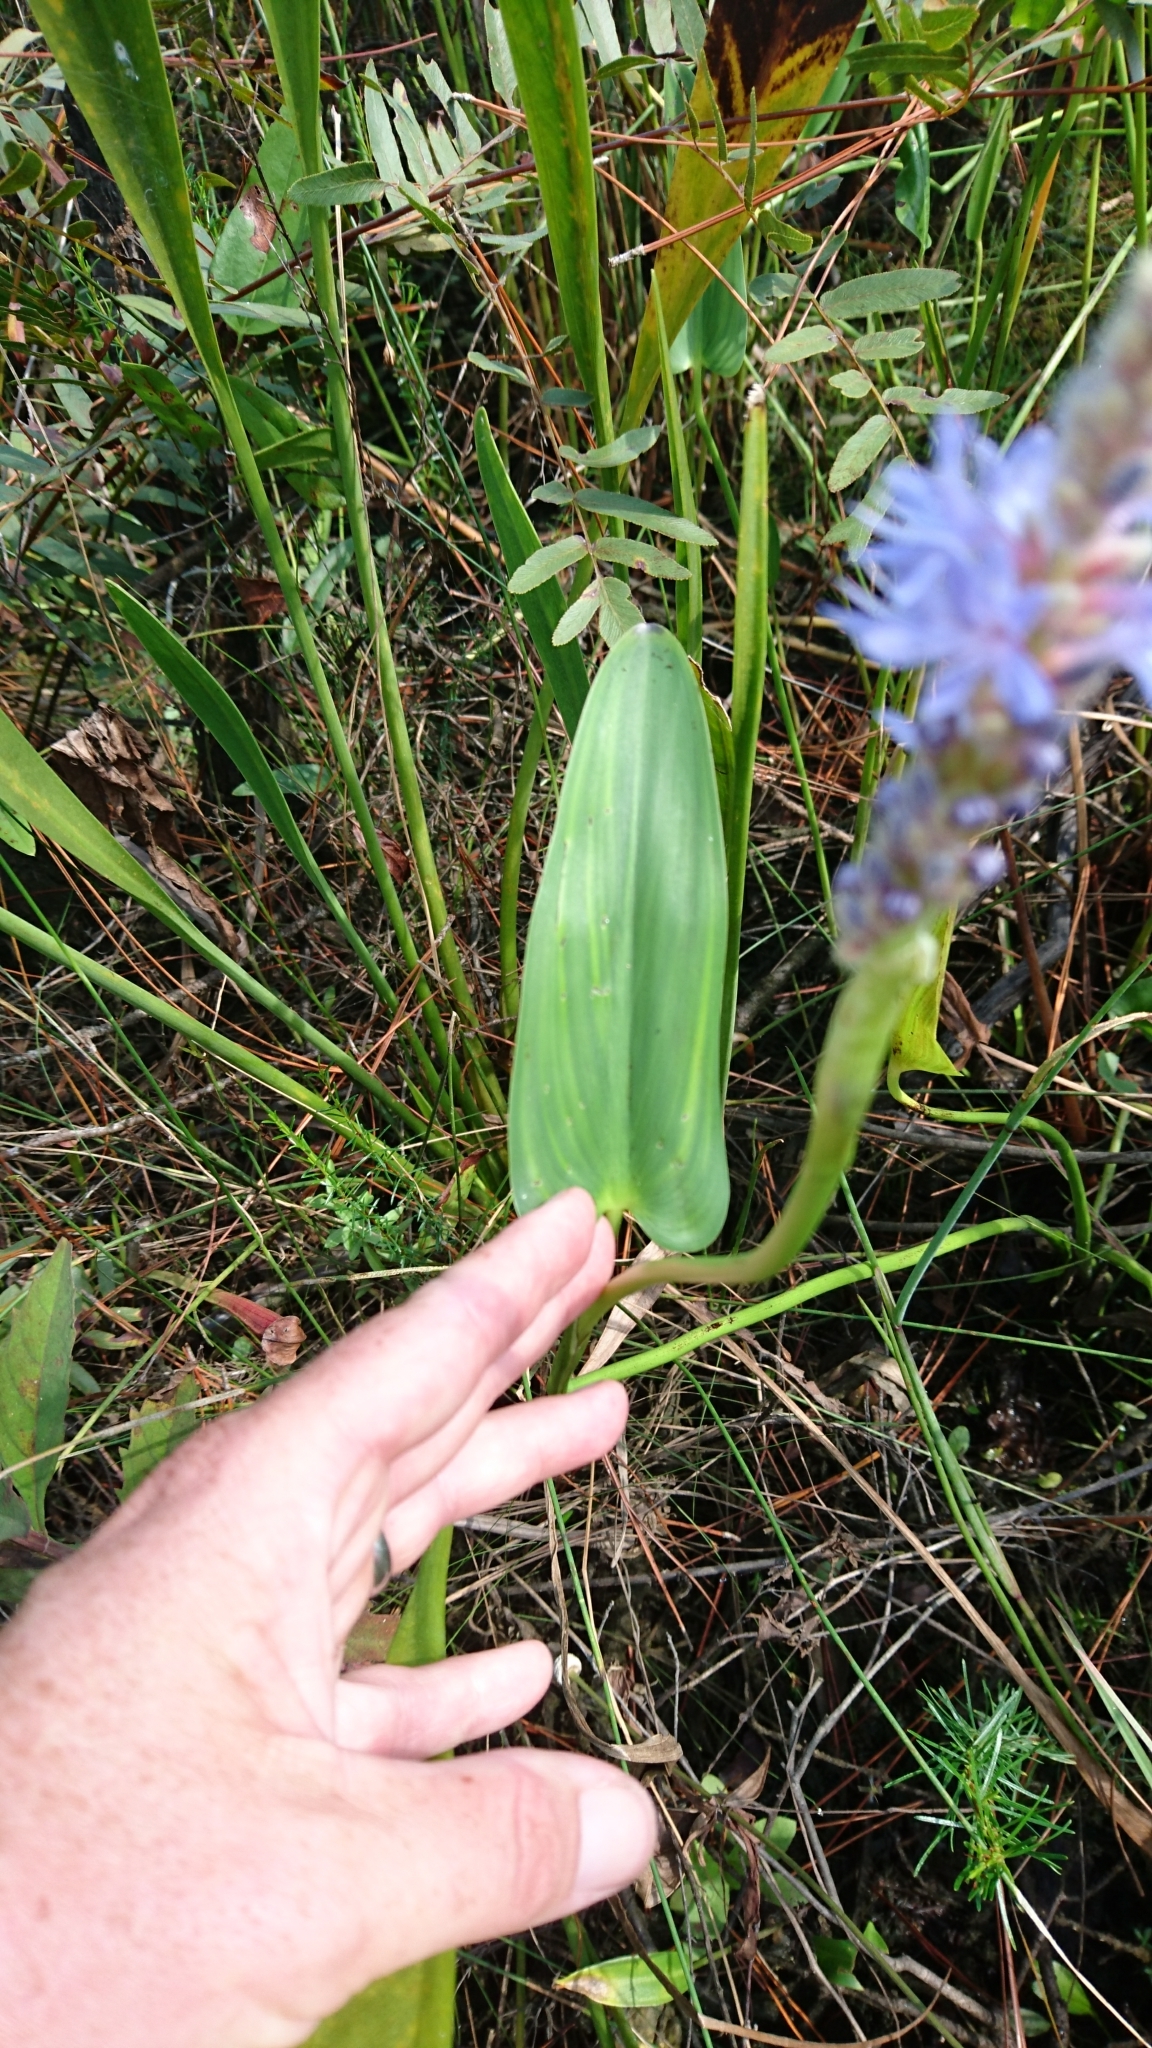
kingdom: Plantae
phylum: Tracheophyta
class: Liliopsida
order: Commelinales
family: Pontederiaceae
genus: Pontederia
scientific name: Pontederia cordata
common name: Pickerelweed
